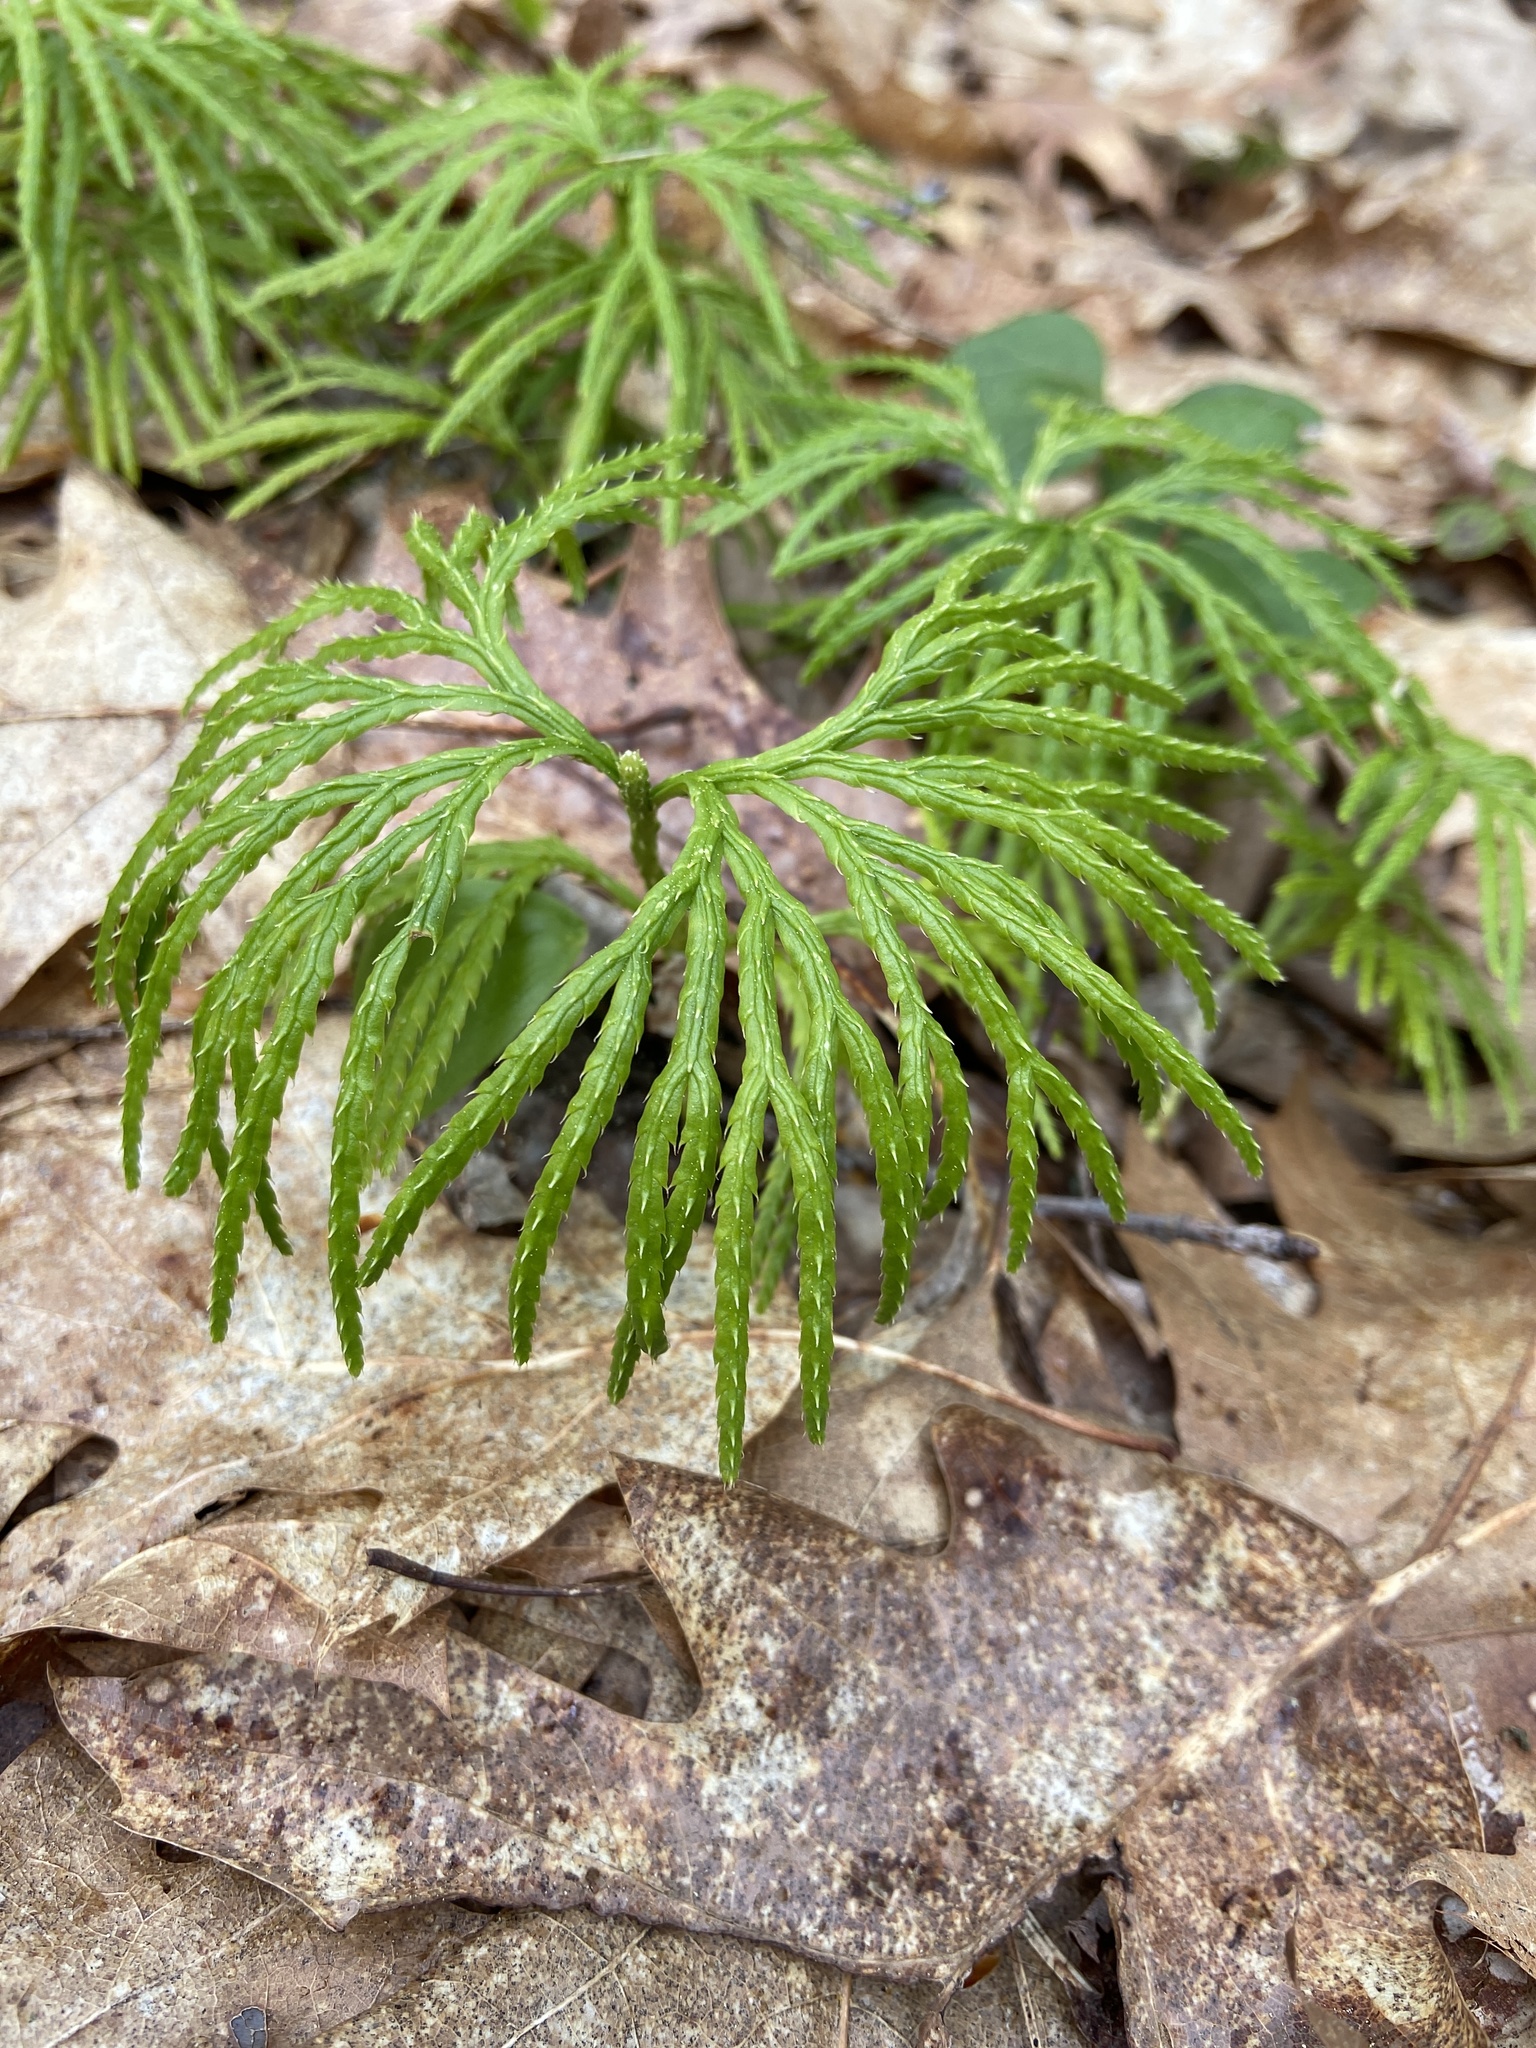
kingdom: Plantae
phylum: Tracheophyta
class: Lycopodiopsida
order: Lycopodiales
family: Lycopodiaceae
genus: Diphasiastrum
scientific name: Diphasiastrum digitatum
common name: Southern running-pine
